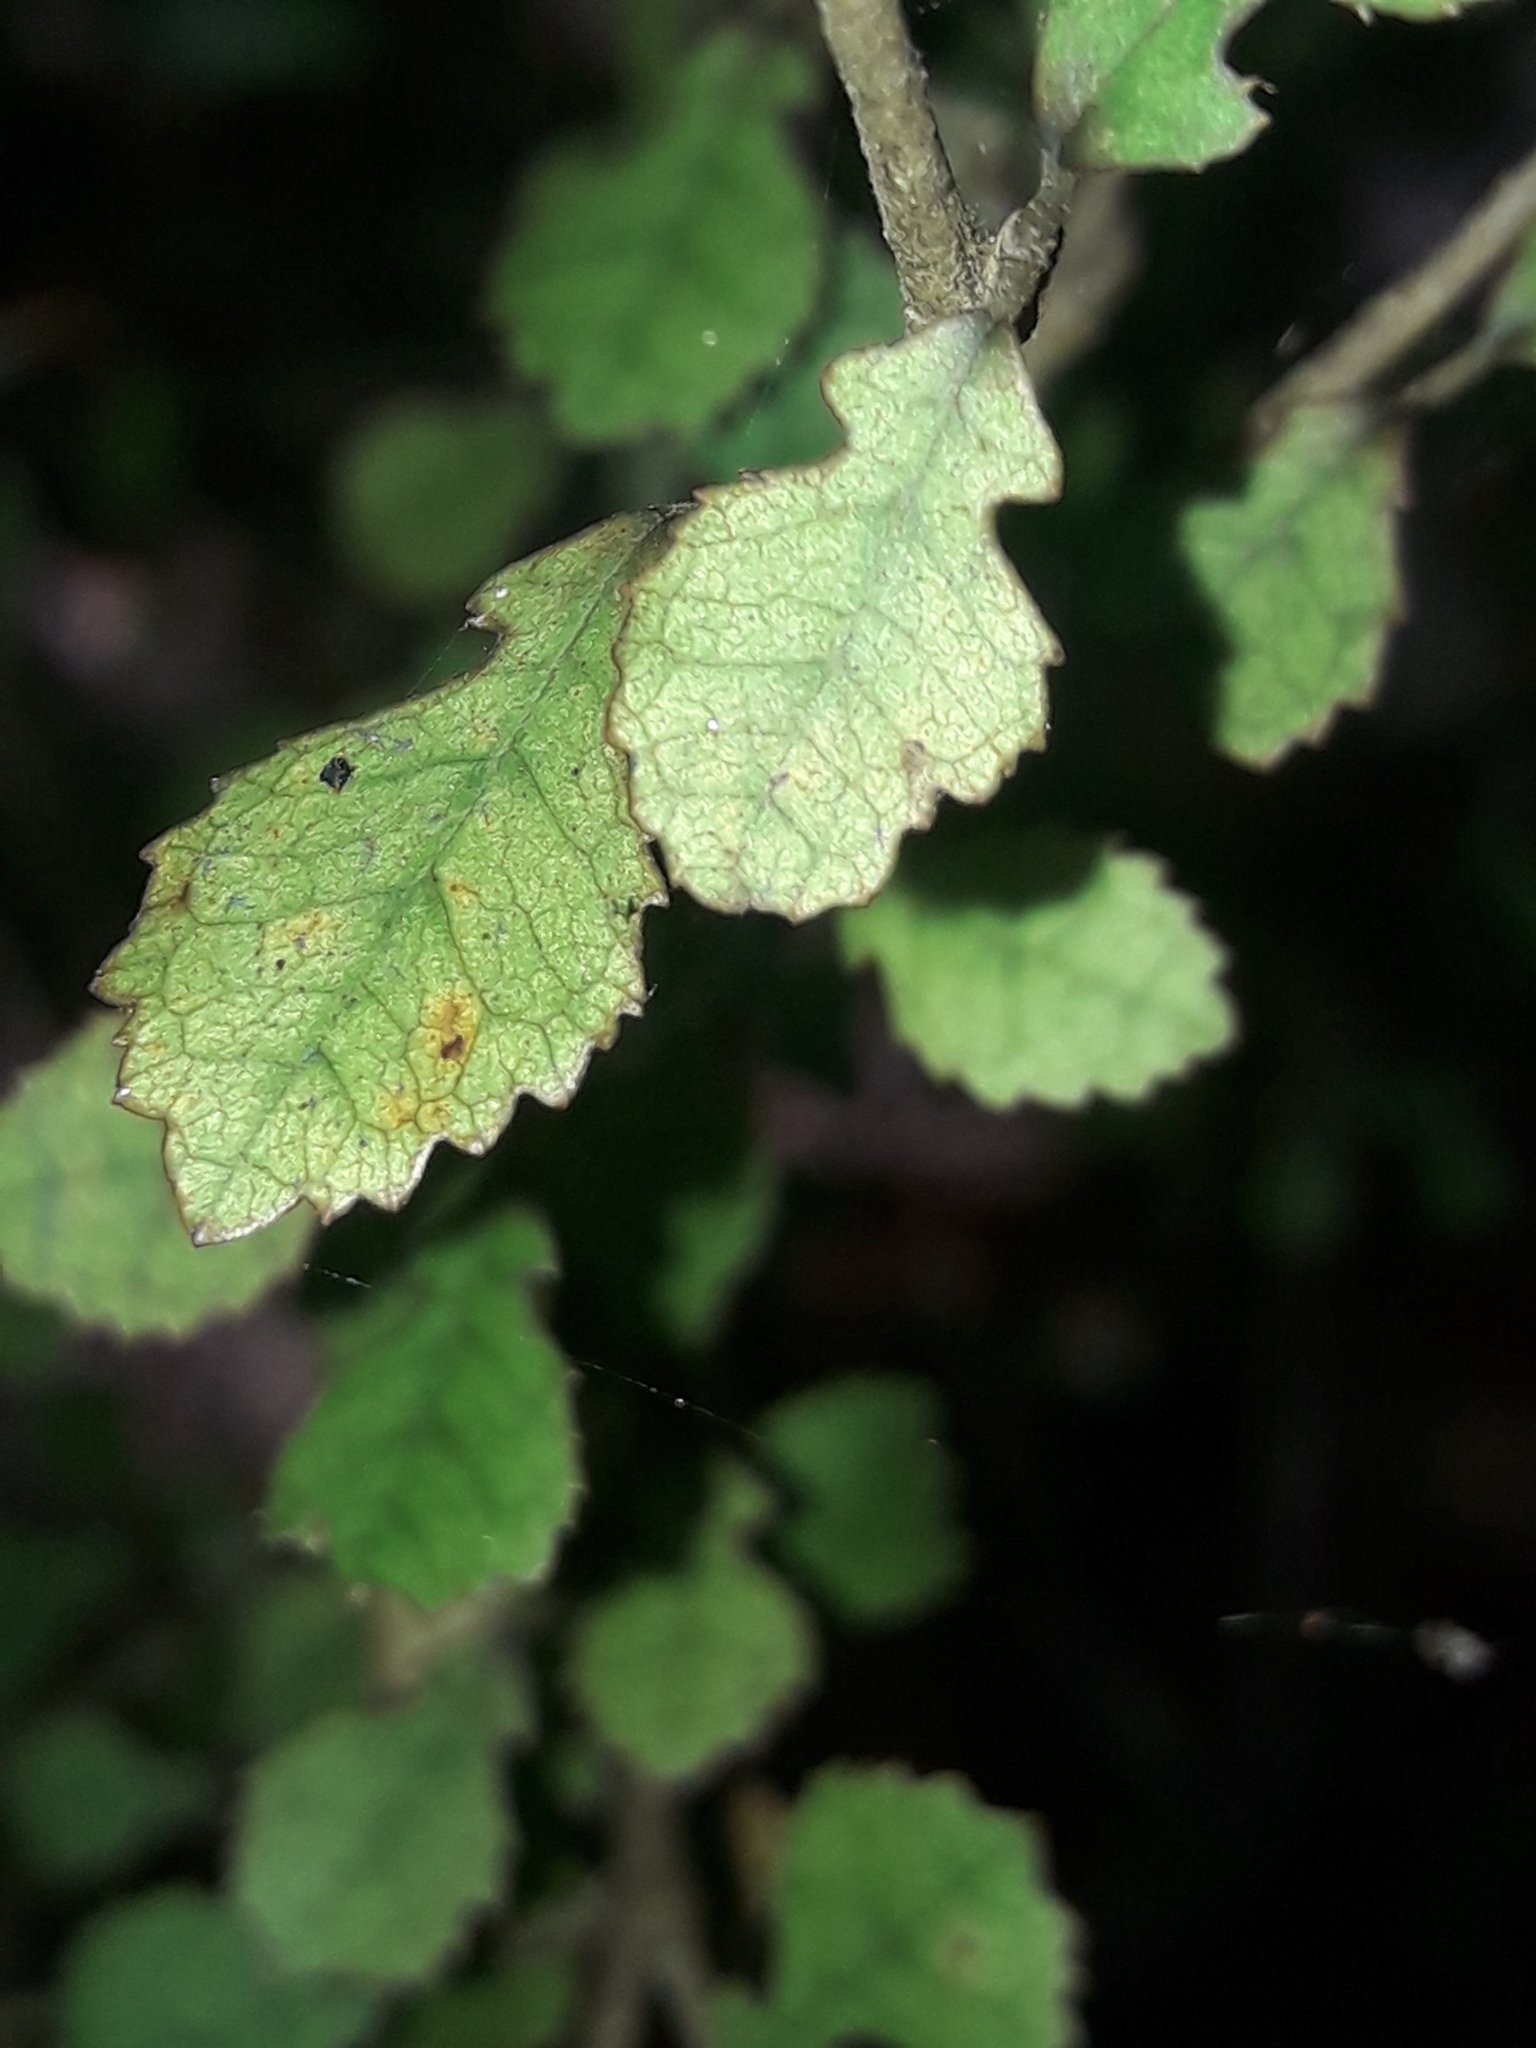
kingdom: Plantae
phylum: Tracheophyta
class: Magnoliopsida
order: Rosales
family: Moraceae
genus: Paratrophis
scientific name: Paratrophis microphylla
